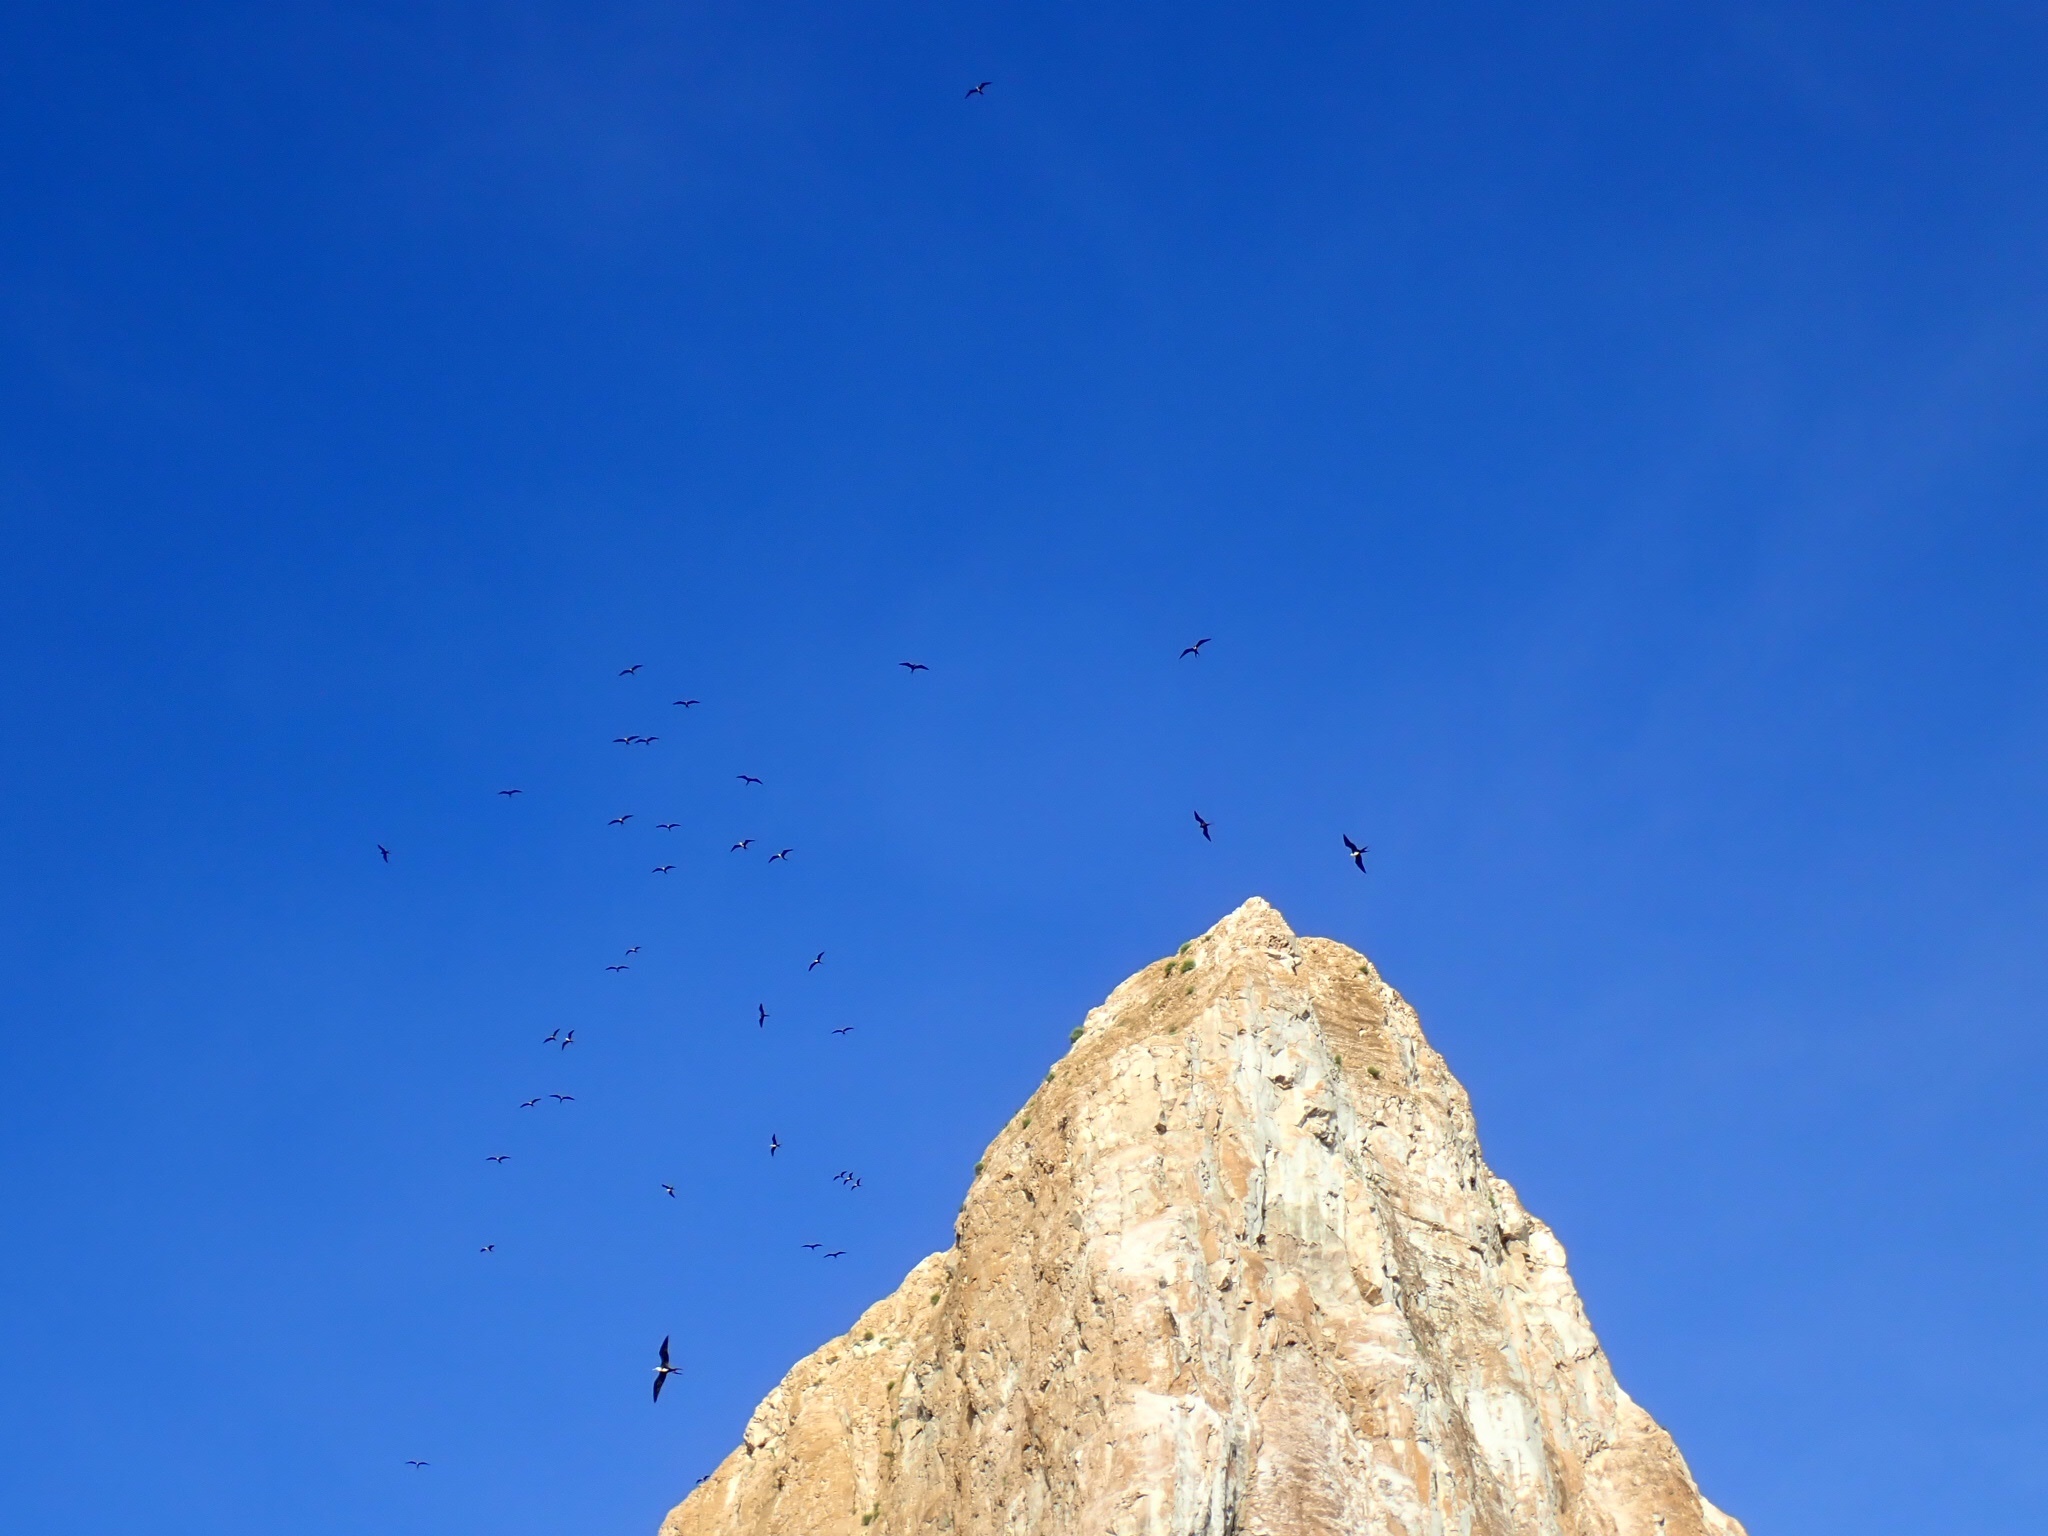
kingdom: Animalia
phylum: Chordata
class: Aves
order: Suliformes
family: Fregatidae
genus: Fregata
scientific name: Fregata
